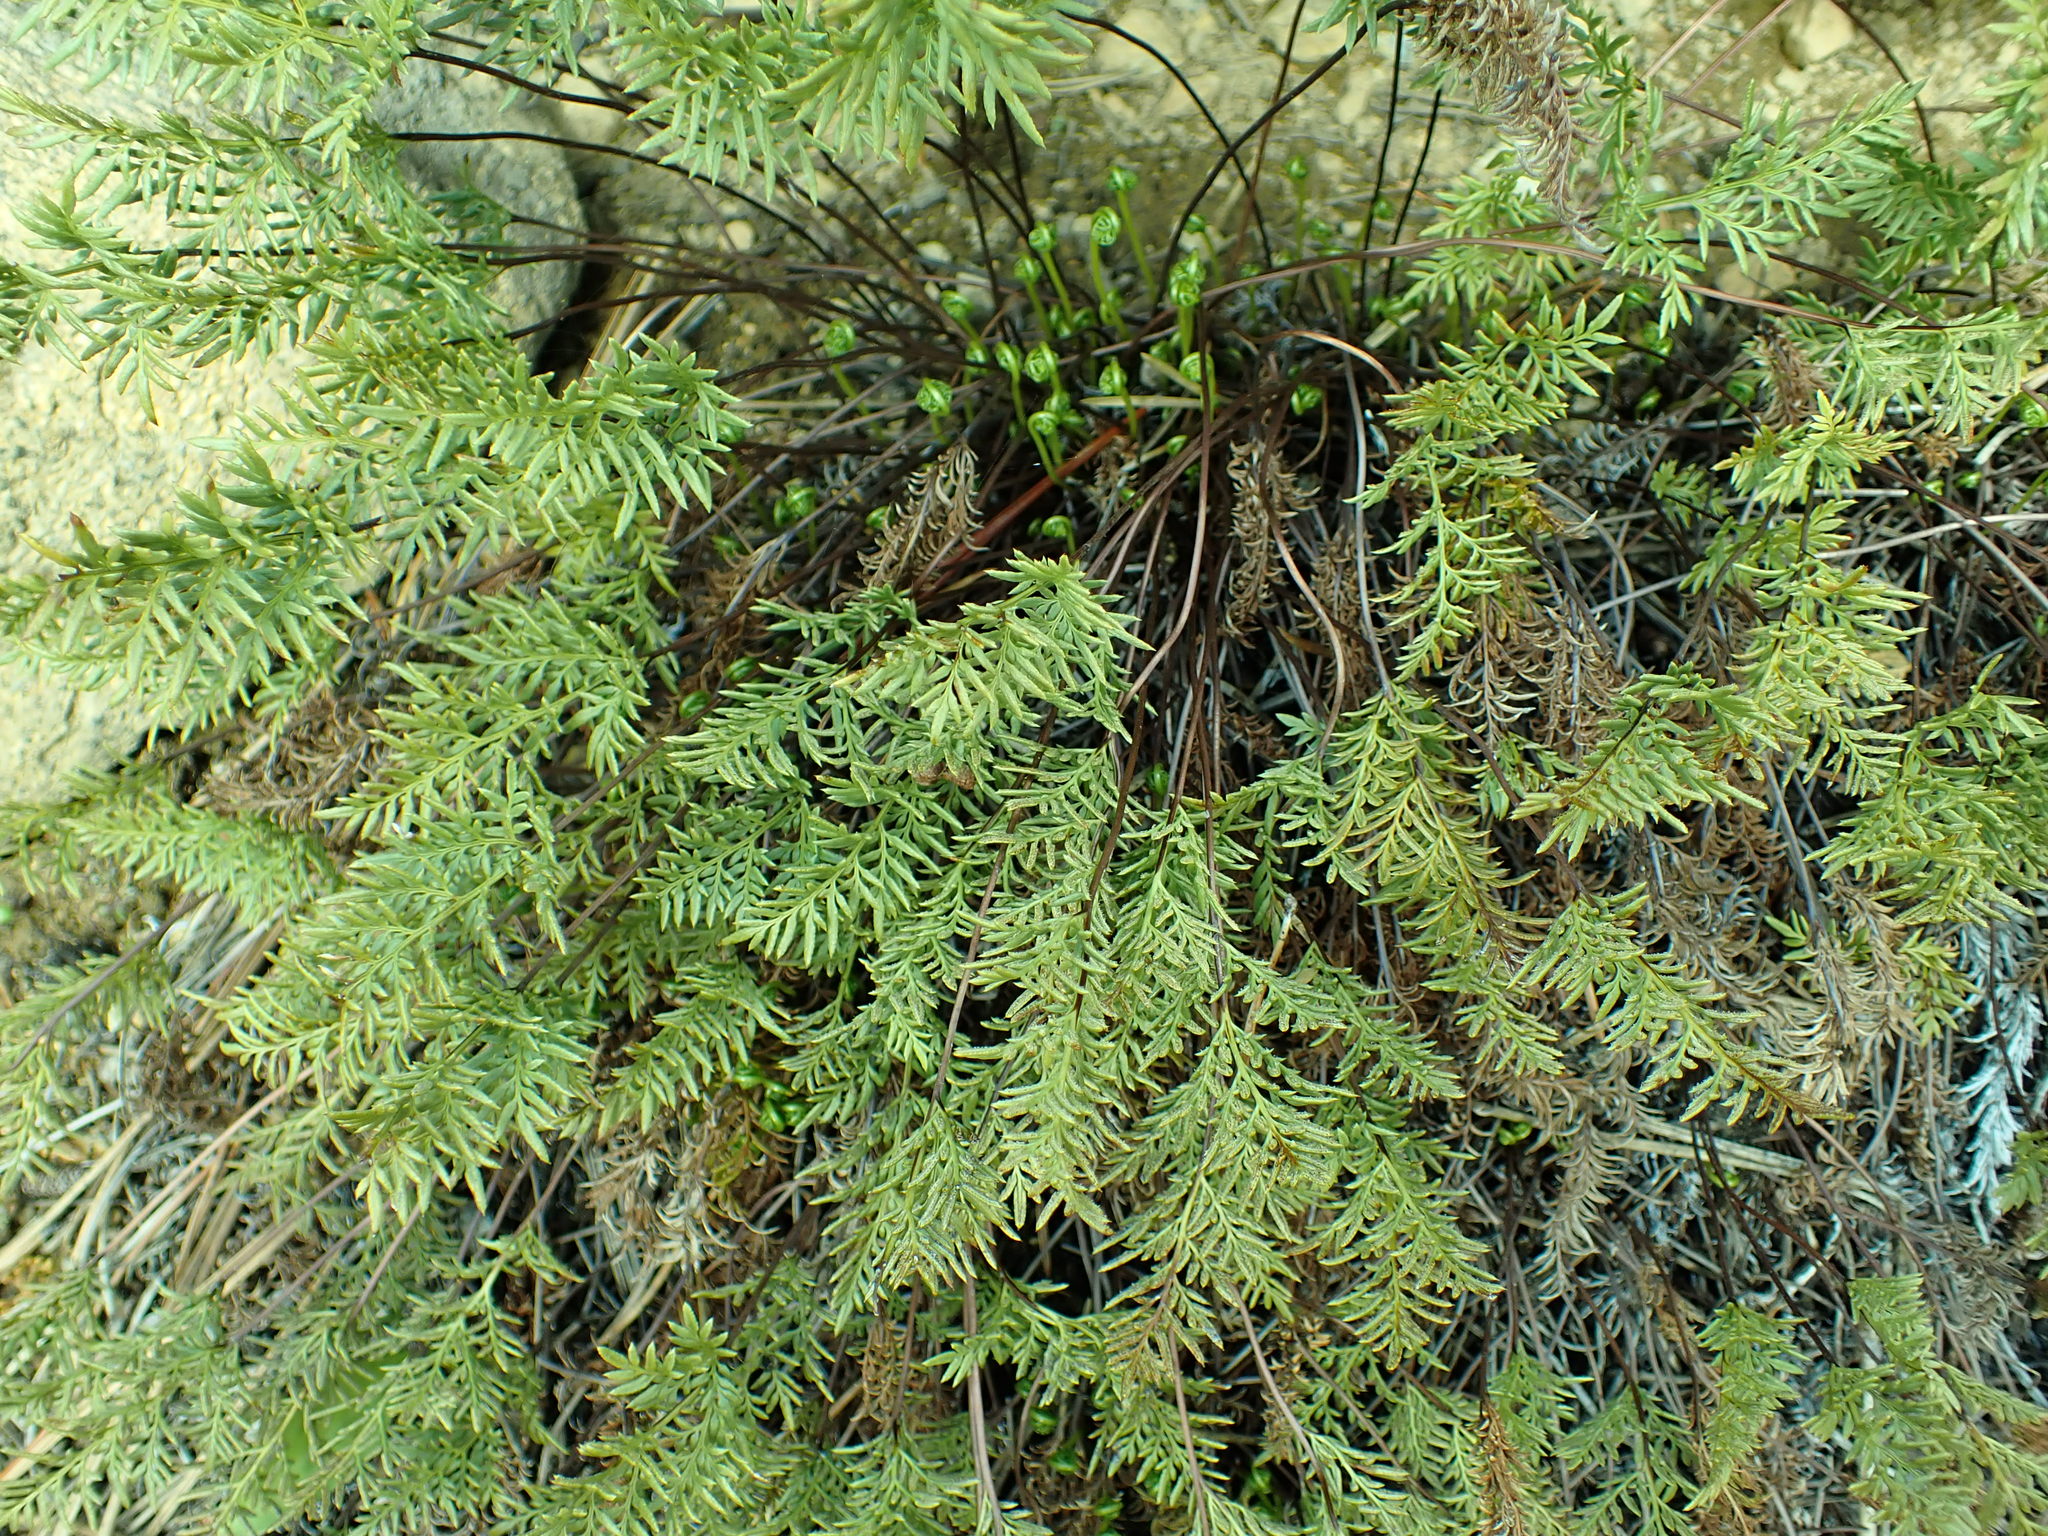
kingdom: Plantae
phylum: Tracheophyta
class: Polypodiopsida
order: Polypodiales
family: Pteridaceae
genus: Aspidotis
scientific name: Aspidotis densa
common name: Indian's dream
